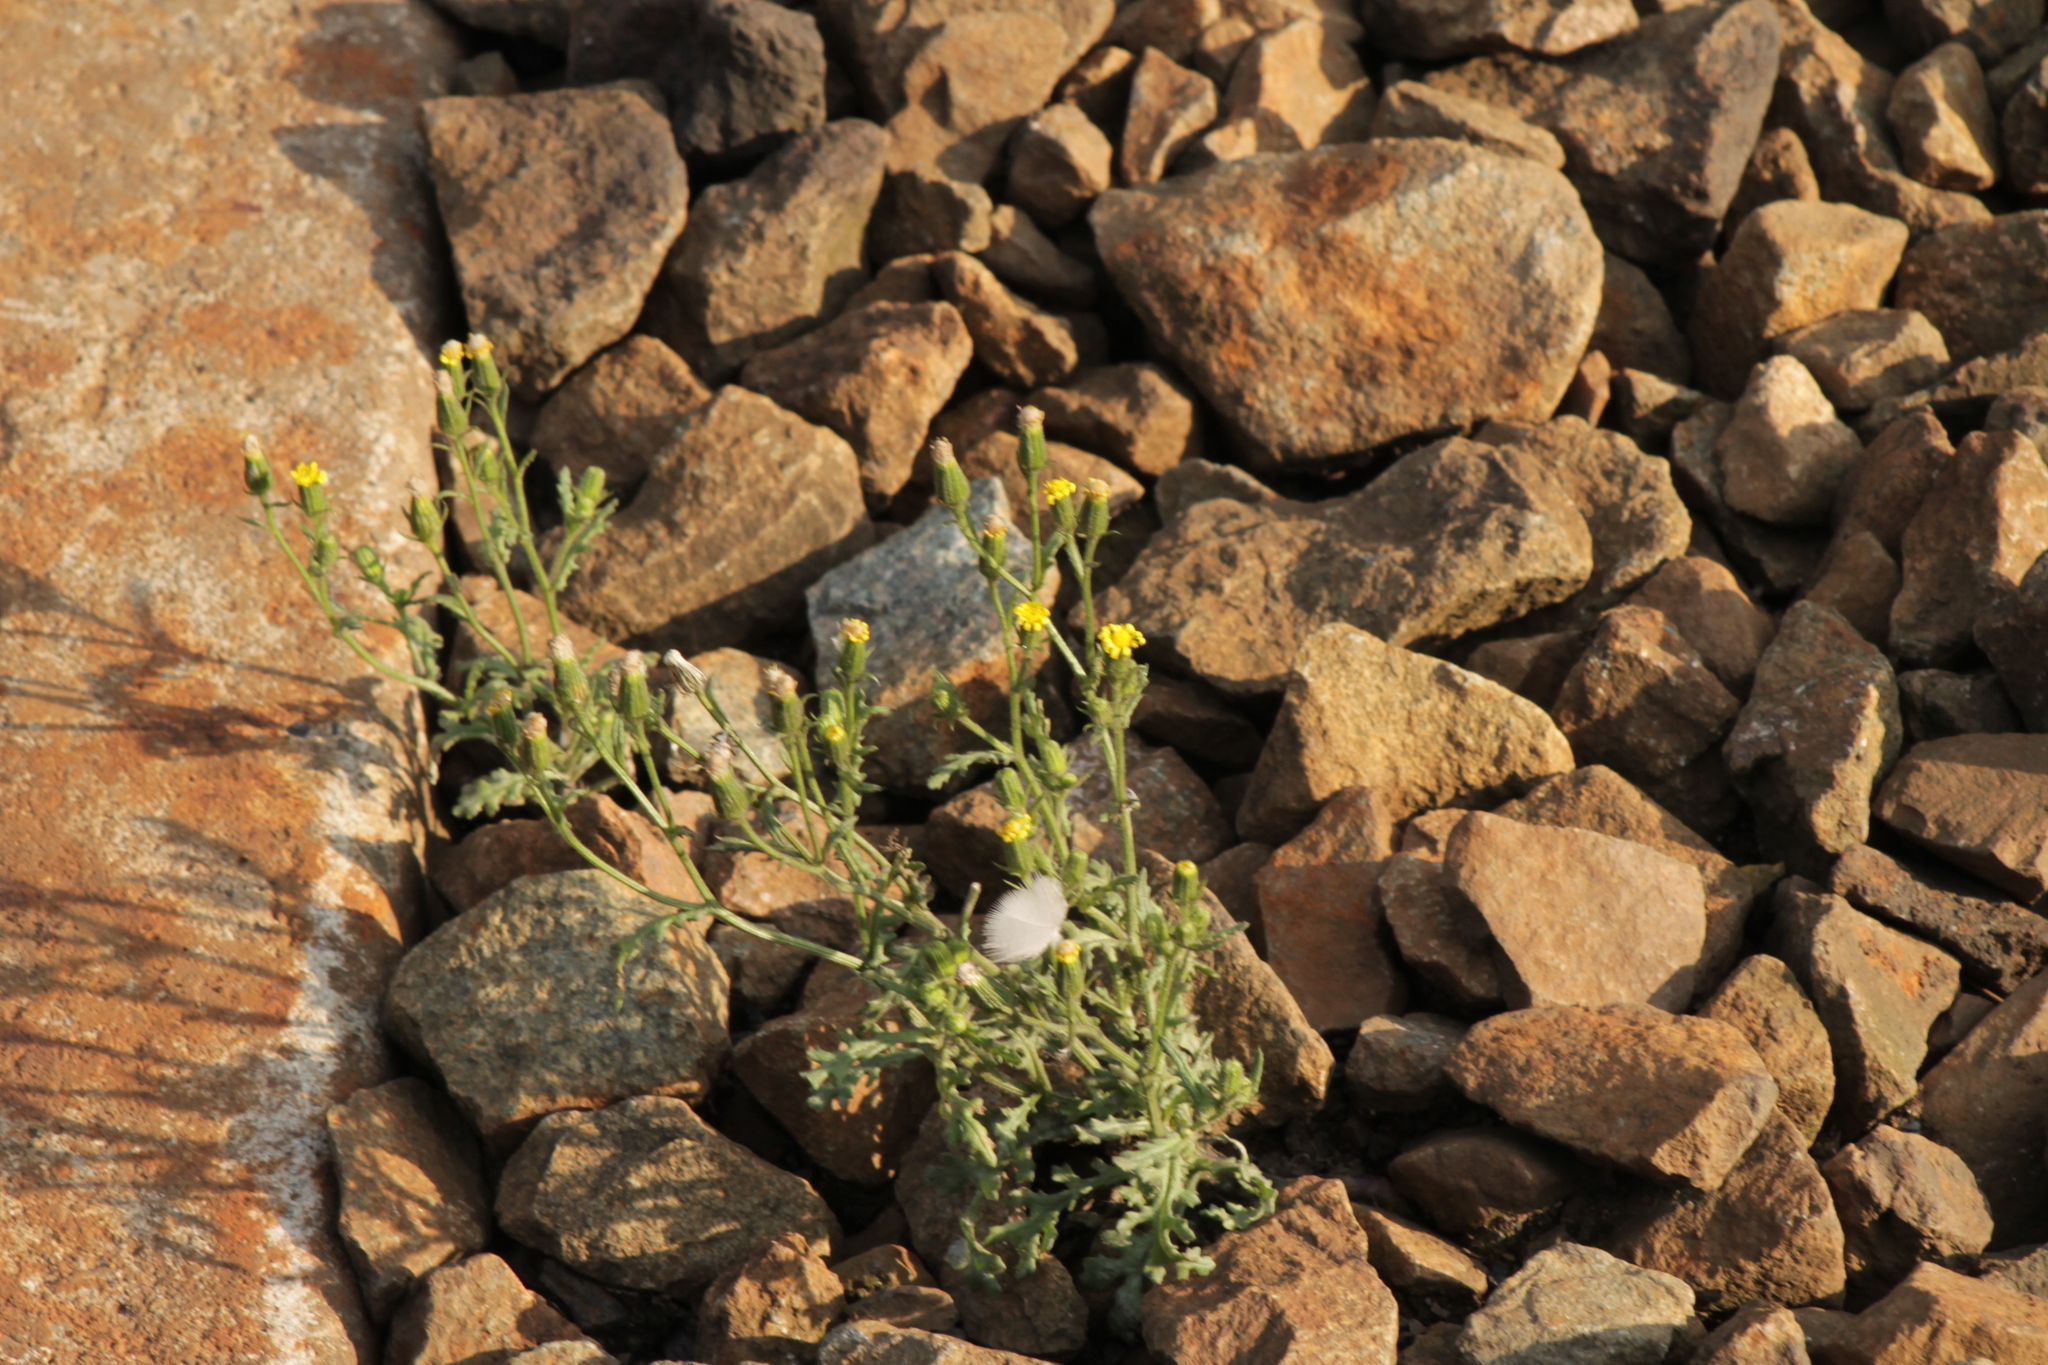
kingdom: Plantae
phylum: Tracheophyta
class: Magnoliopsida
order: Asterales
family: Asteraceae
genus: Senecio
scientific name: Senecio viscosus
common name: Sticky groundsel
